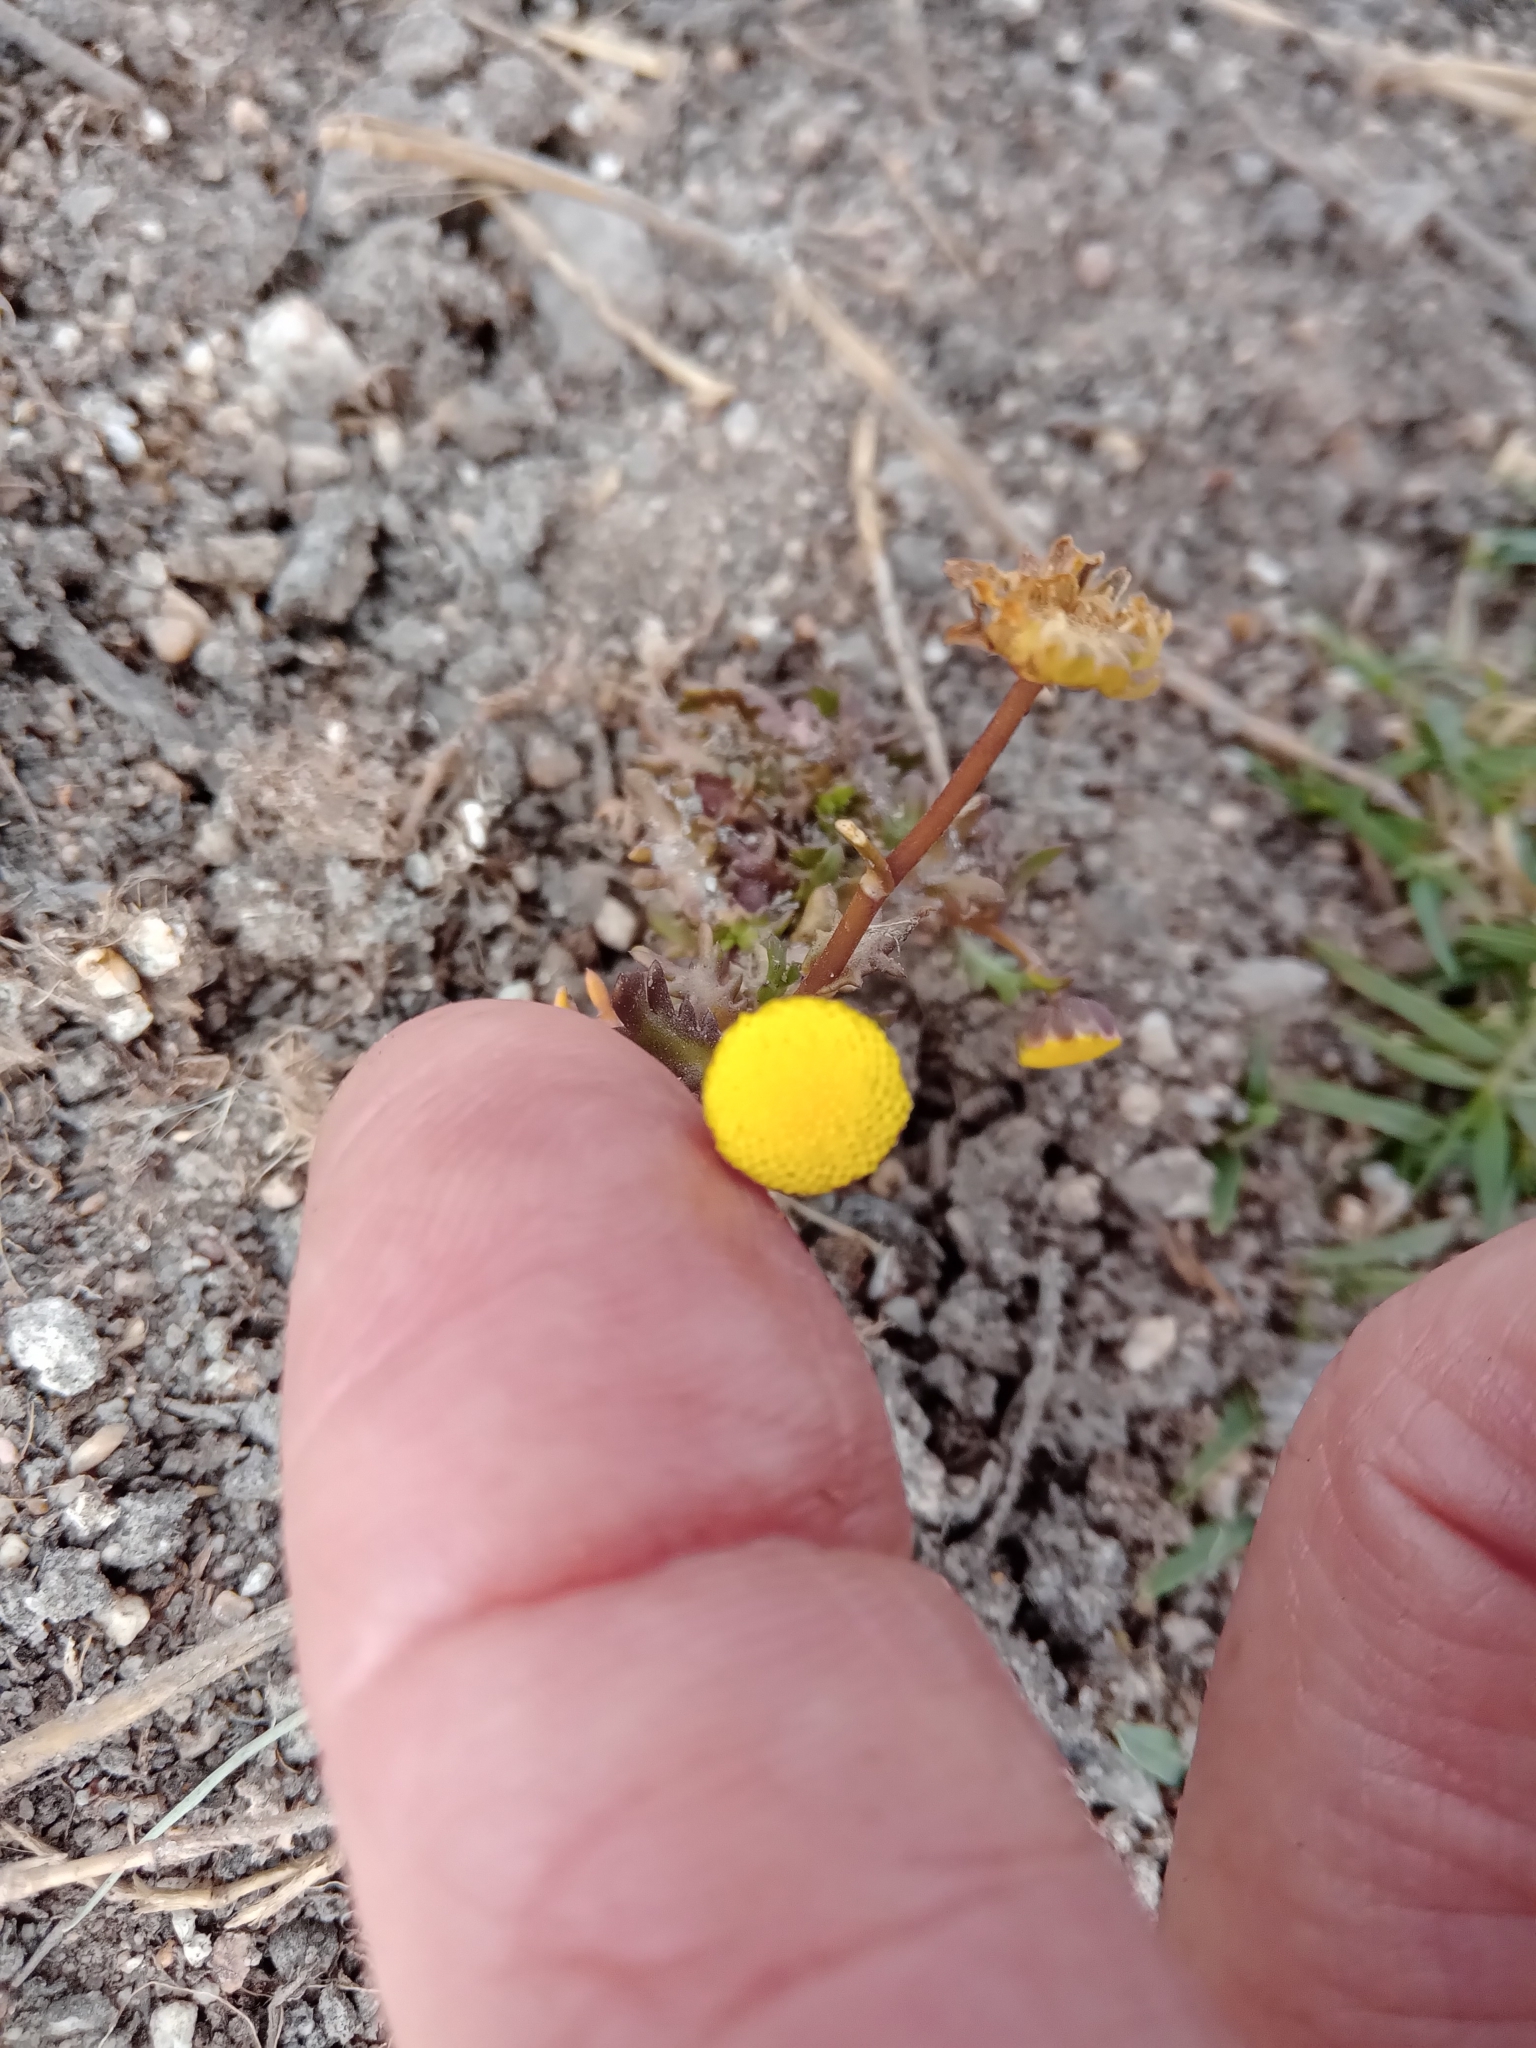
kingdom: Plantae
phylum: Tracheophyta
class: Magnoliopsida
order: Asterales
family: Asteraceae
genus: Cotula
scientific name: Cotula coronopifolia
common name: Buttonweed
